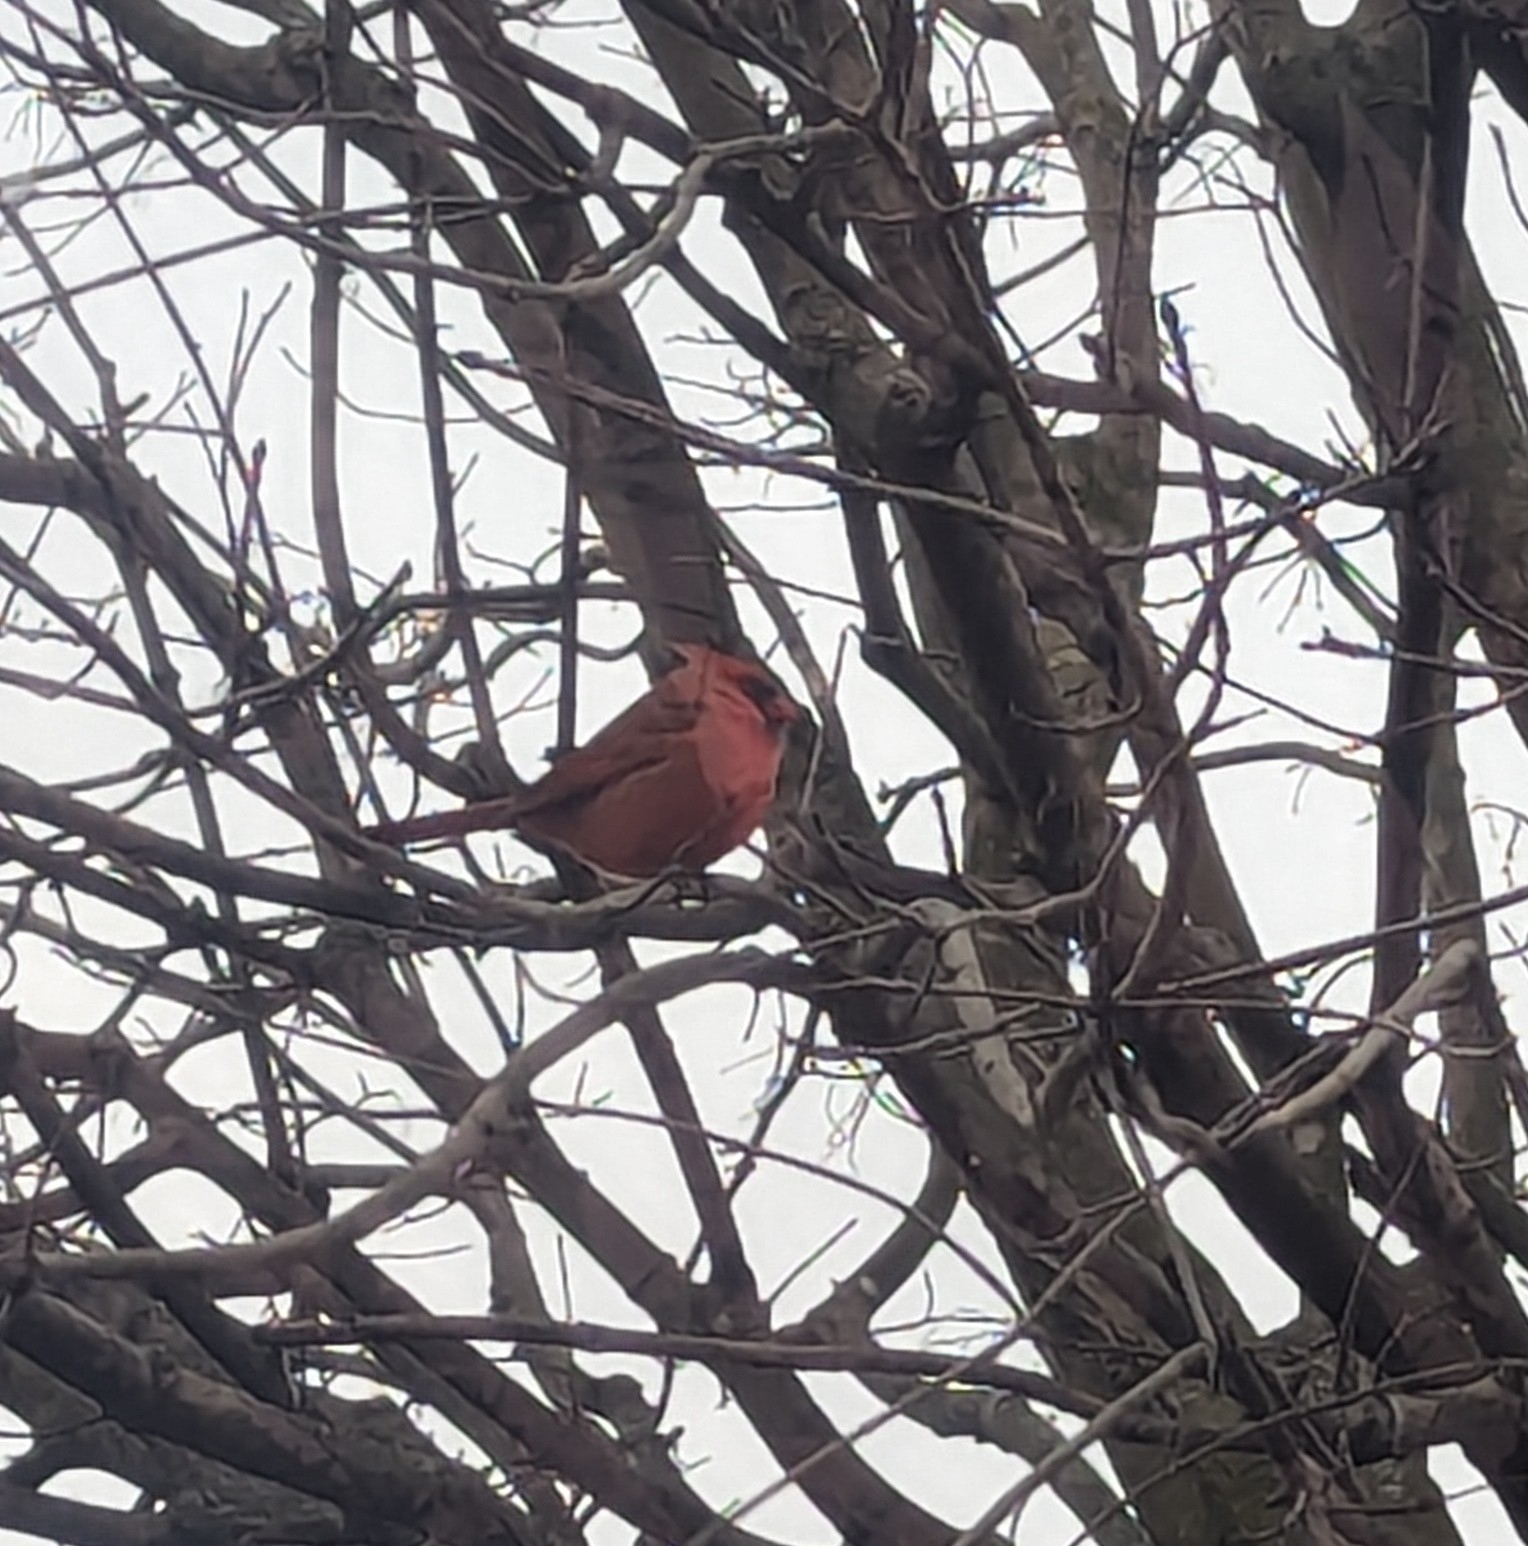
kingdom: Animalia
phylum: Chordata
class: Aves
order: Passeriformes
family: Cardinalidae
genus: Cardinalis
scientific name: Cardinalis cardinalis
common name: Northern cardinal
